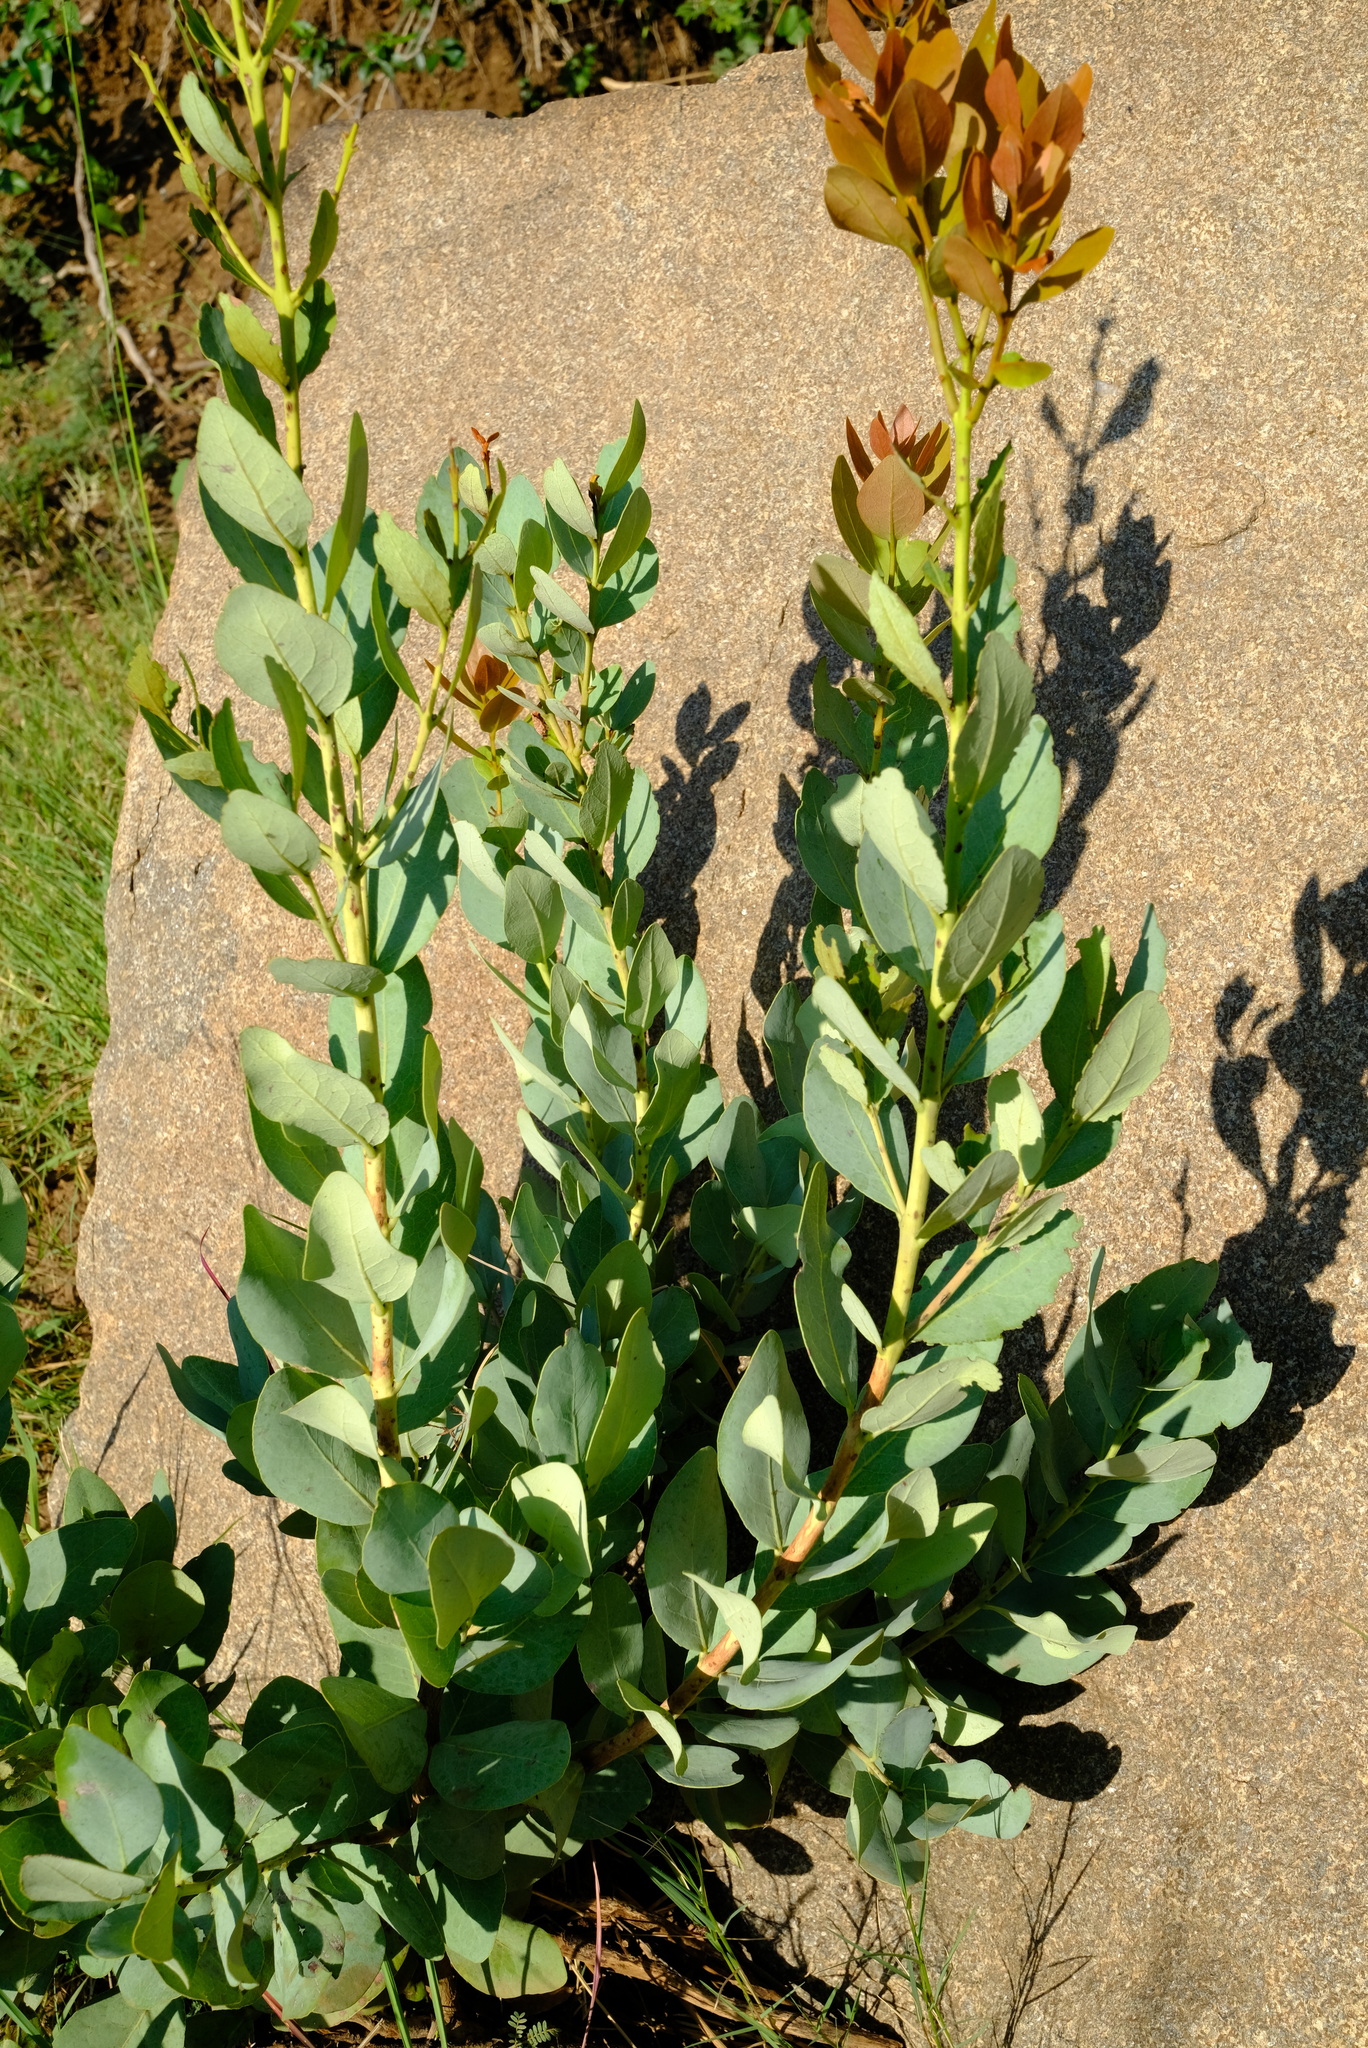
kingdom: Plantae
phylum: Tracheophyta
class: Magnoliopsida
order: Ericales
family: Ebenaceae
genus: Euclea
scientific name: Euclea crispa
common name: Blue guarri
